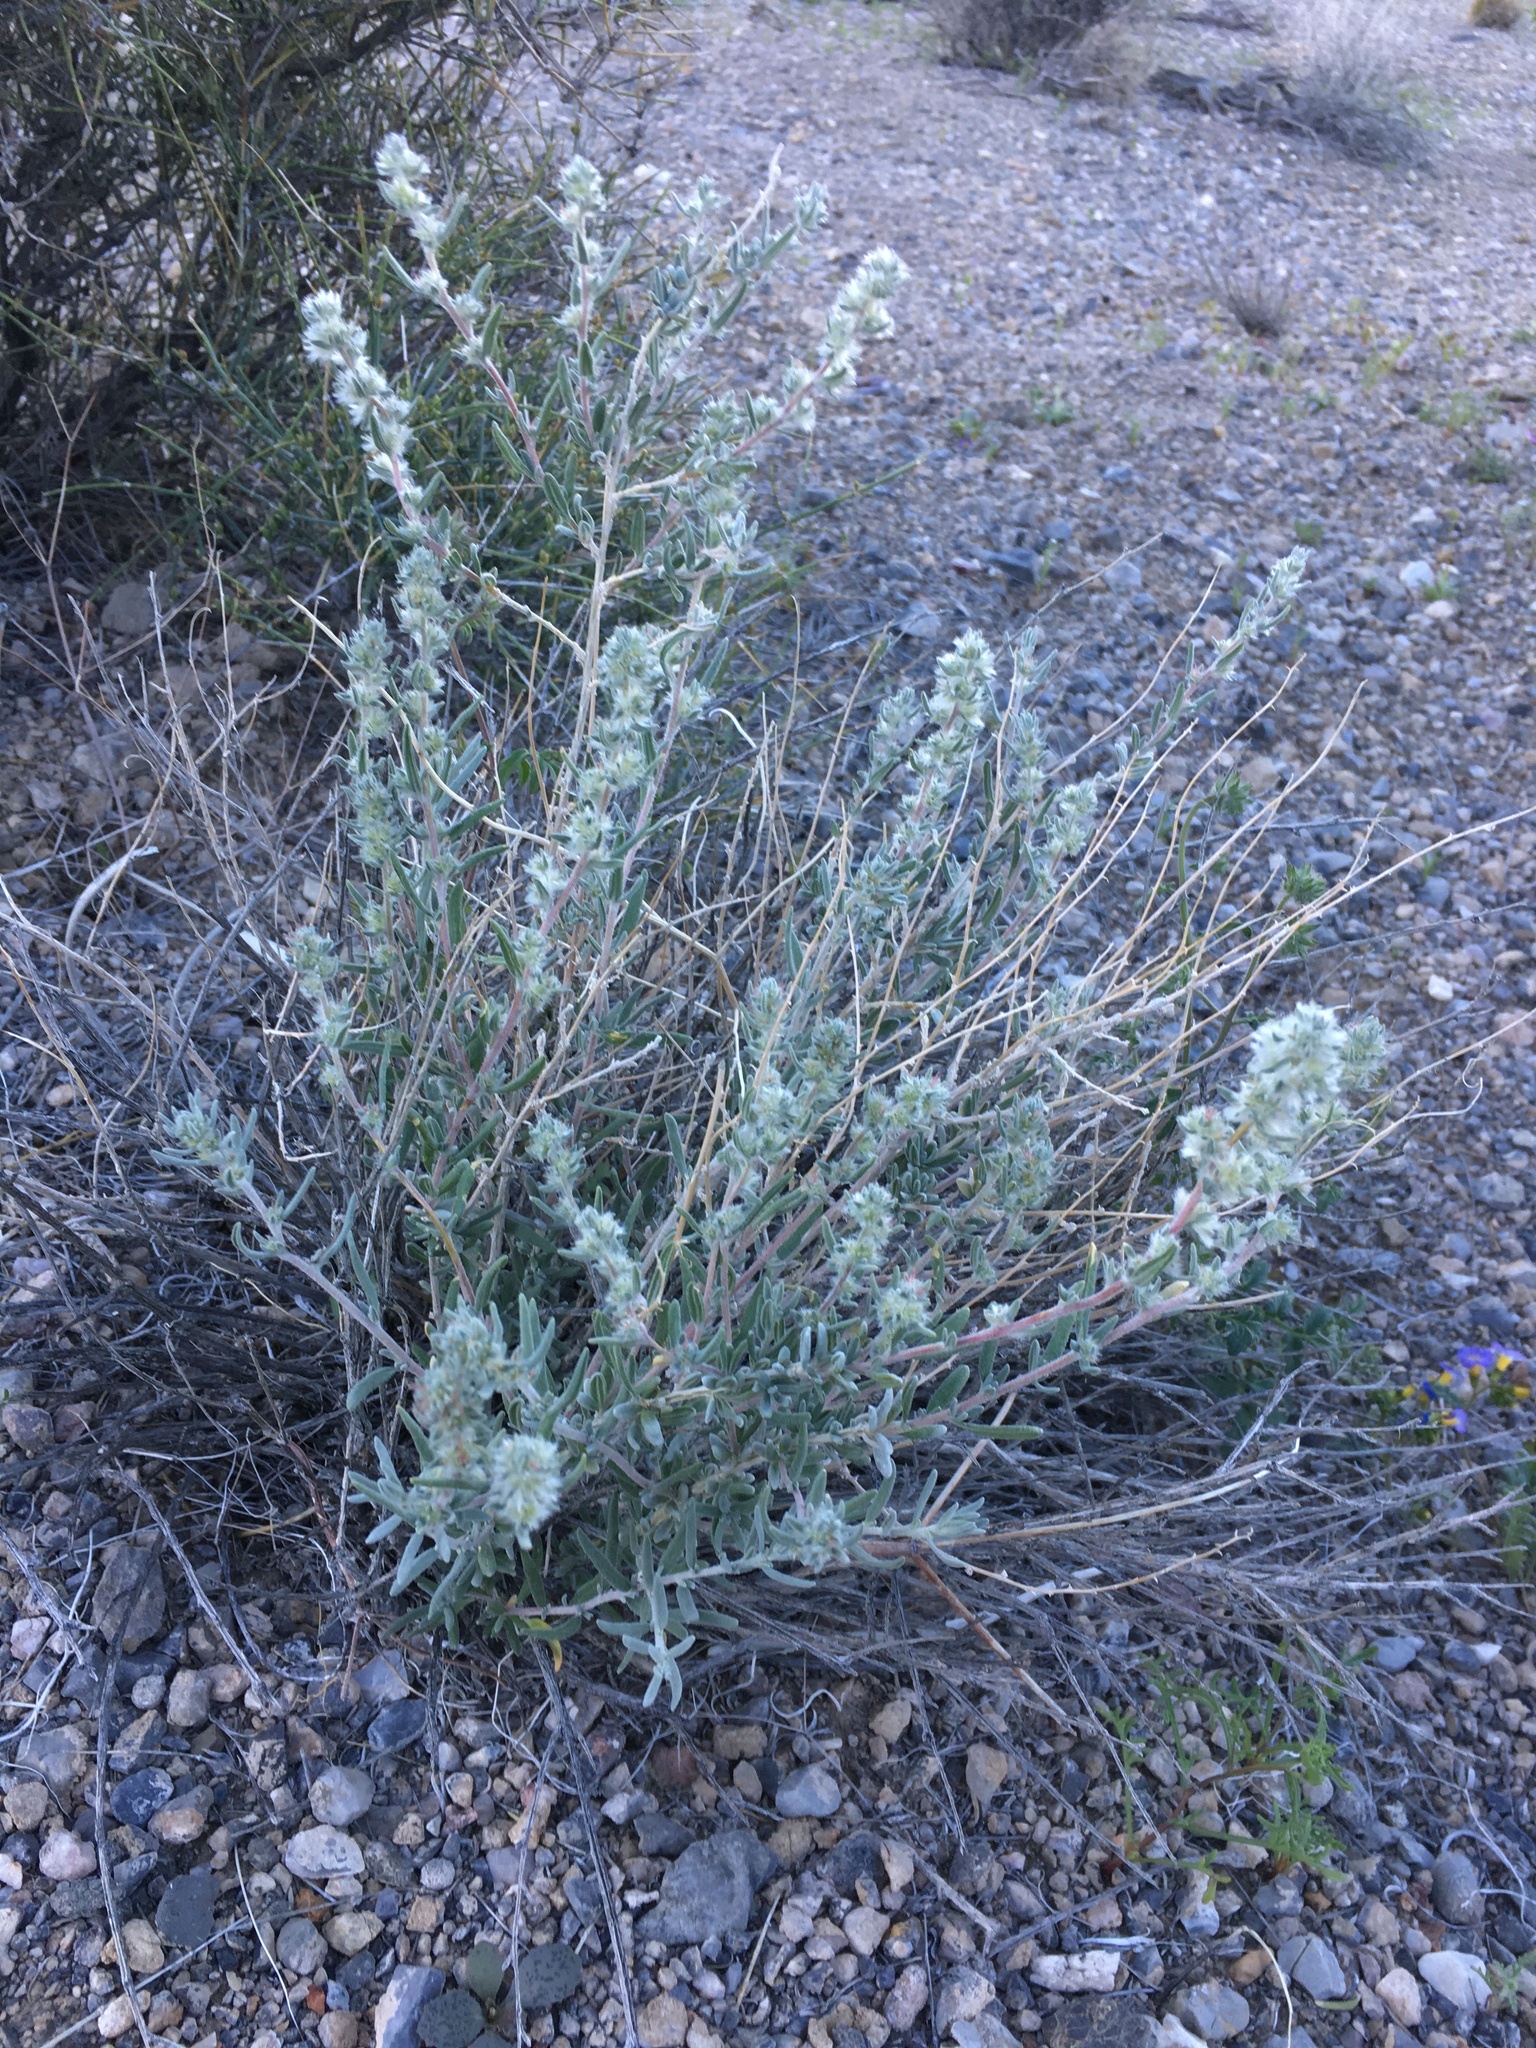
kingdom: Plantae
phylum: Tracheophyta
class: Magnoliopsida
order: Caryophyllales
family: Amaranthaceae
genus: Krascheninnikovia
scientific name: Krascheninnikovia lanata
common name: Winterfat
